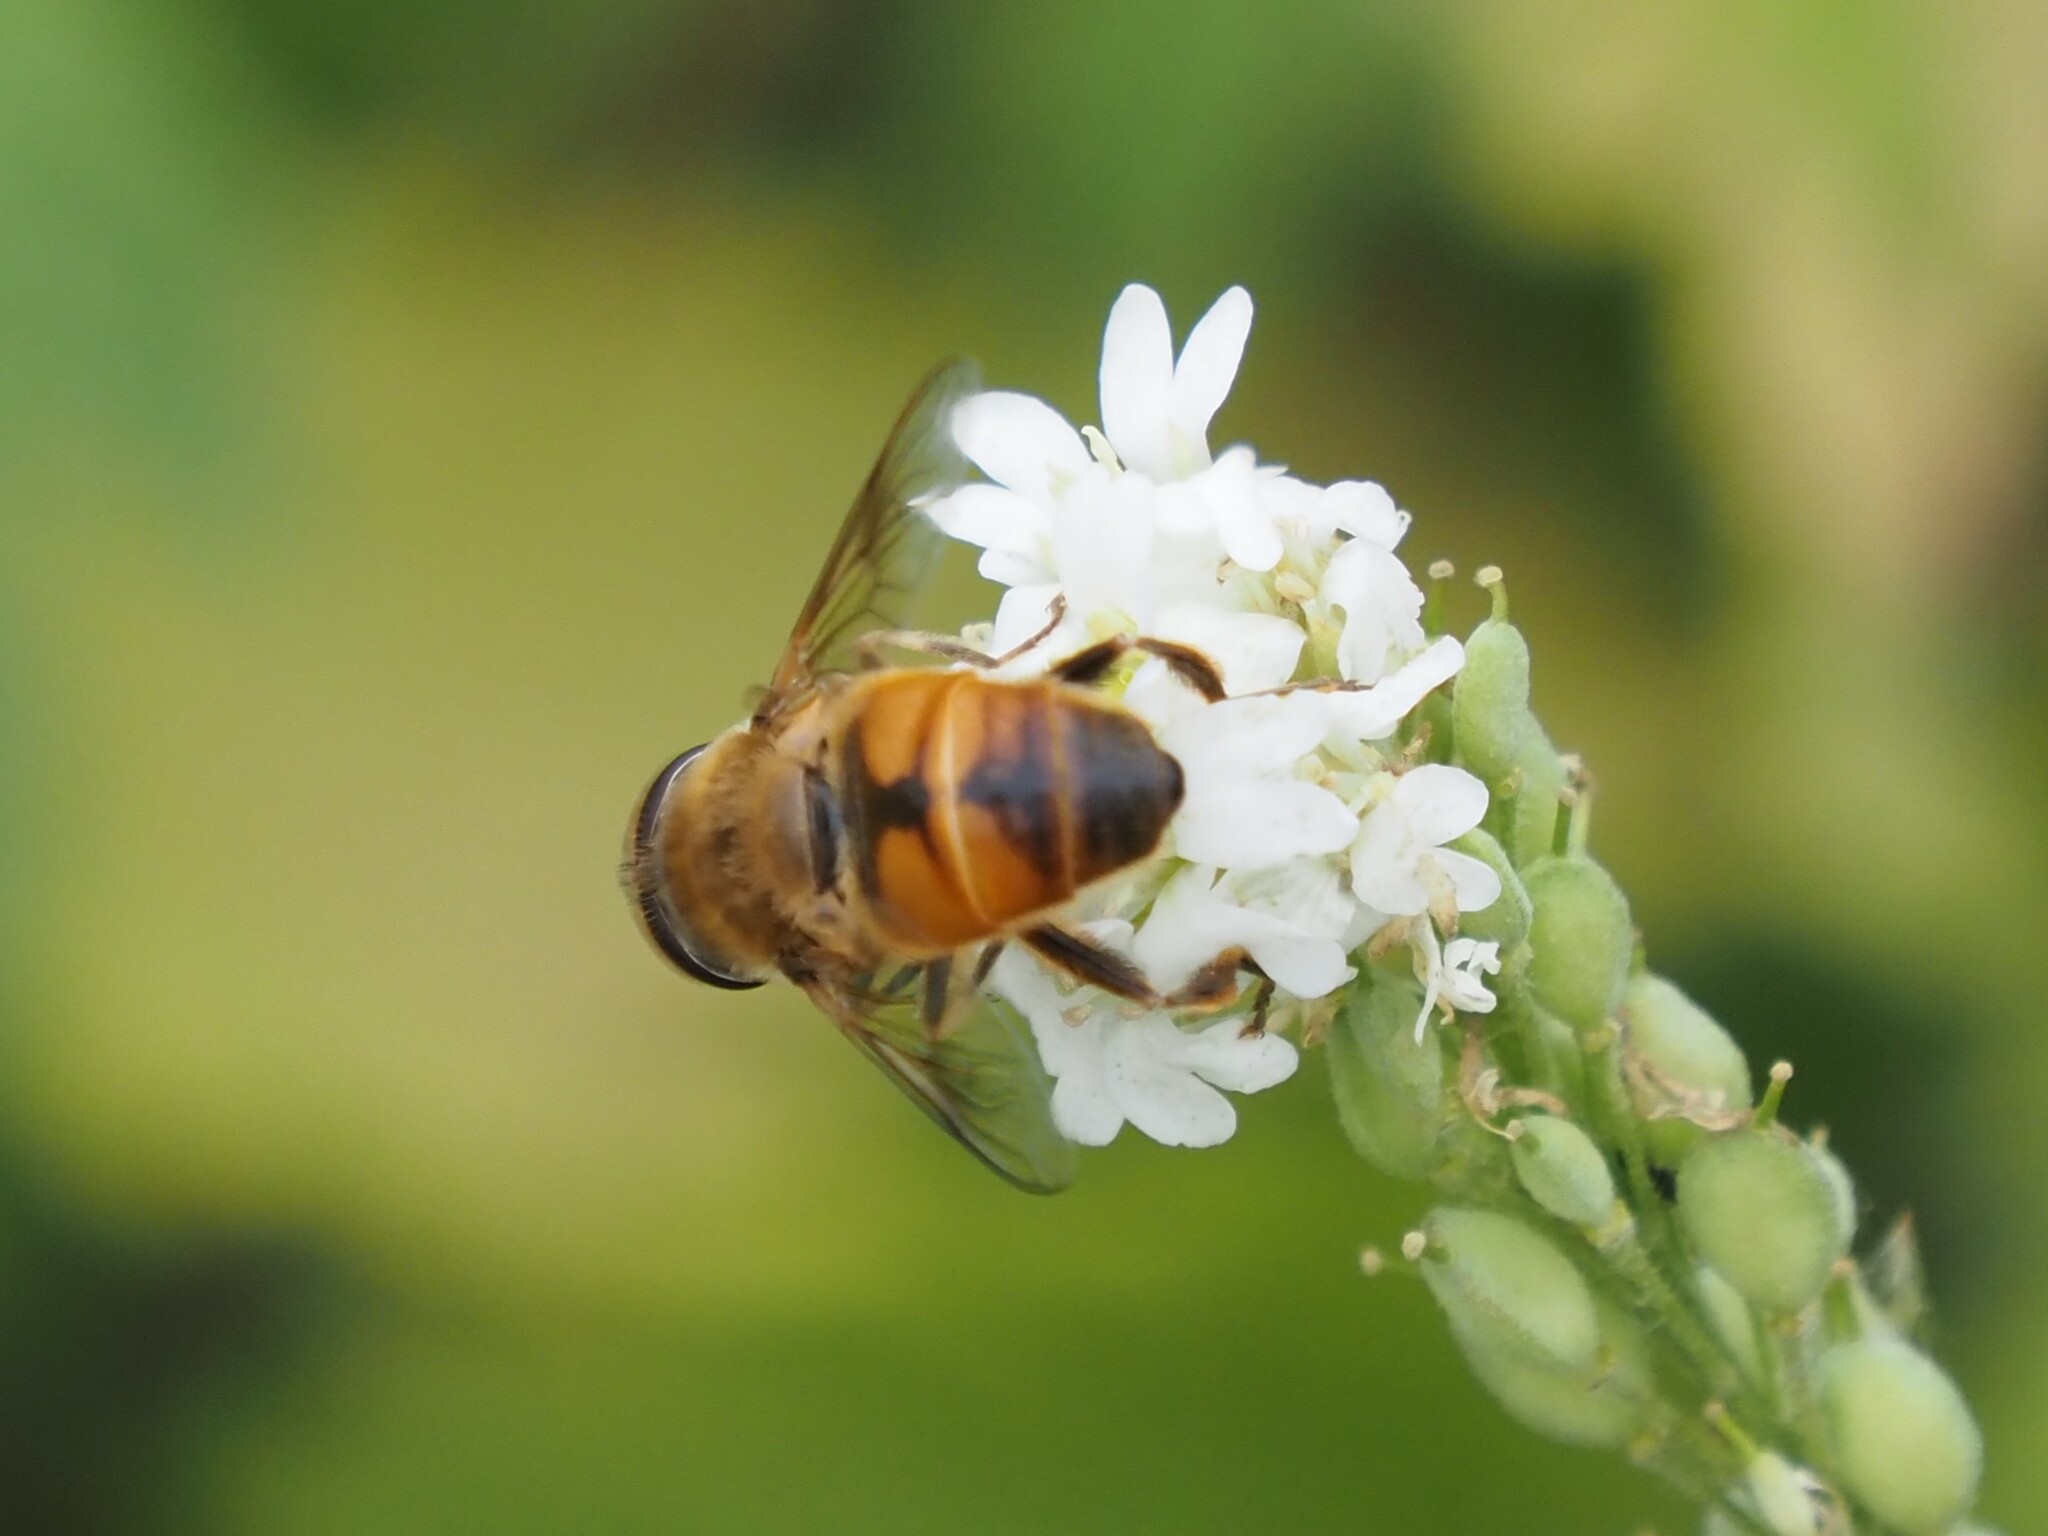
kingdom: Animalia
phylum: Arthropoda
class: Insecta
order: Diptera
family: Syrphidae
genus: Eristalis
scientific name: Eristalis tenax
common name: Drone fly
